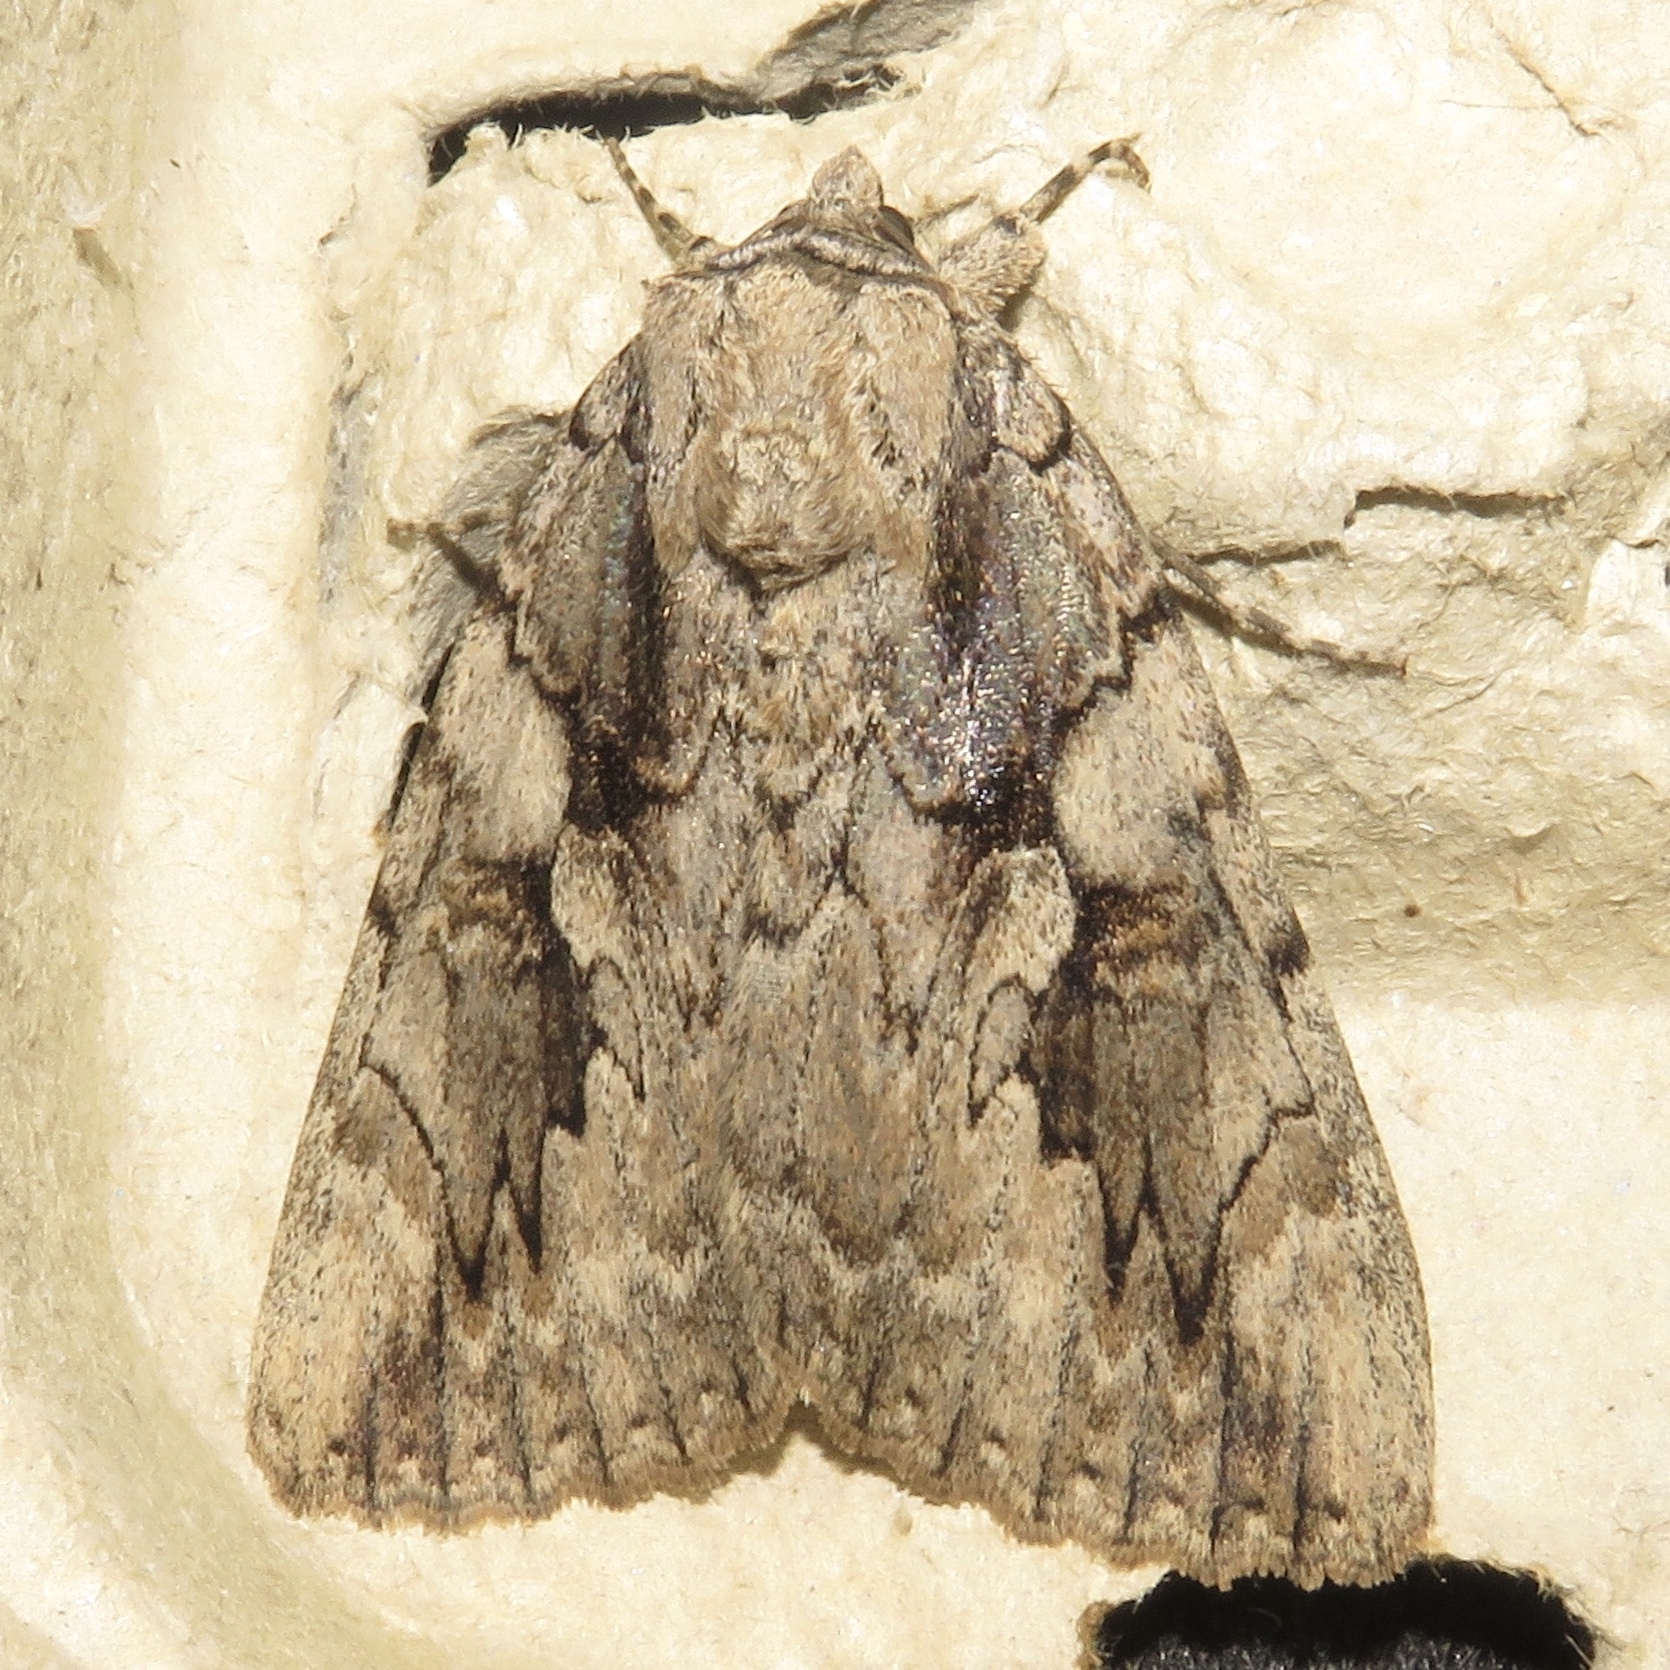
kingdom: Animalia
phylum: Arthropoda
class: Insecta
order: Lepidoptera
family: Erebidae
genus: Catocala
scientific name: Catocala amatrix
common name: Sweetheart underwing
